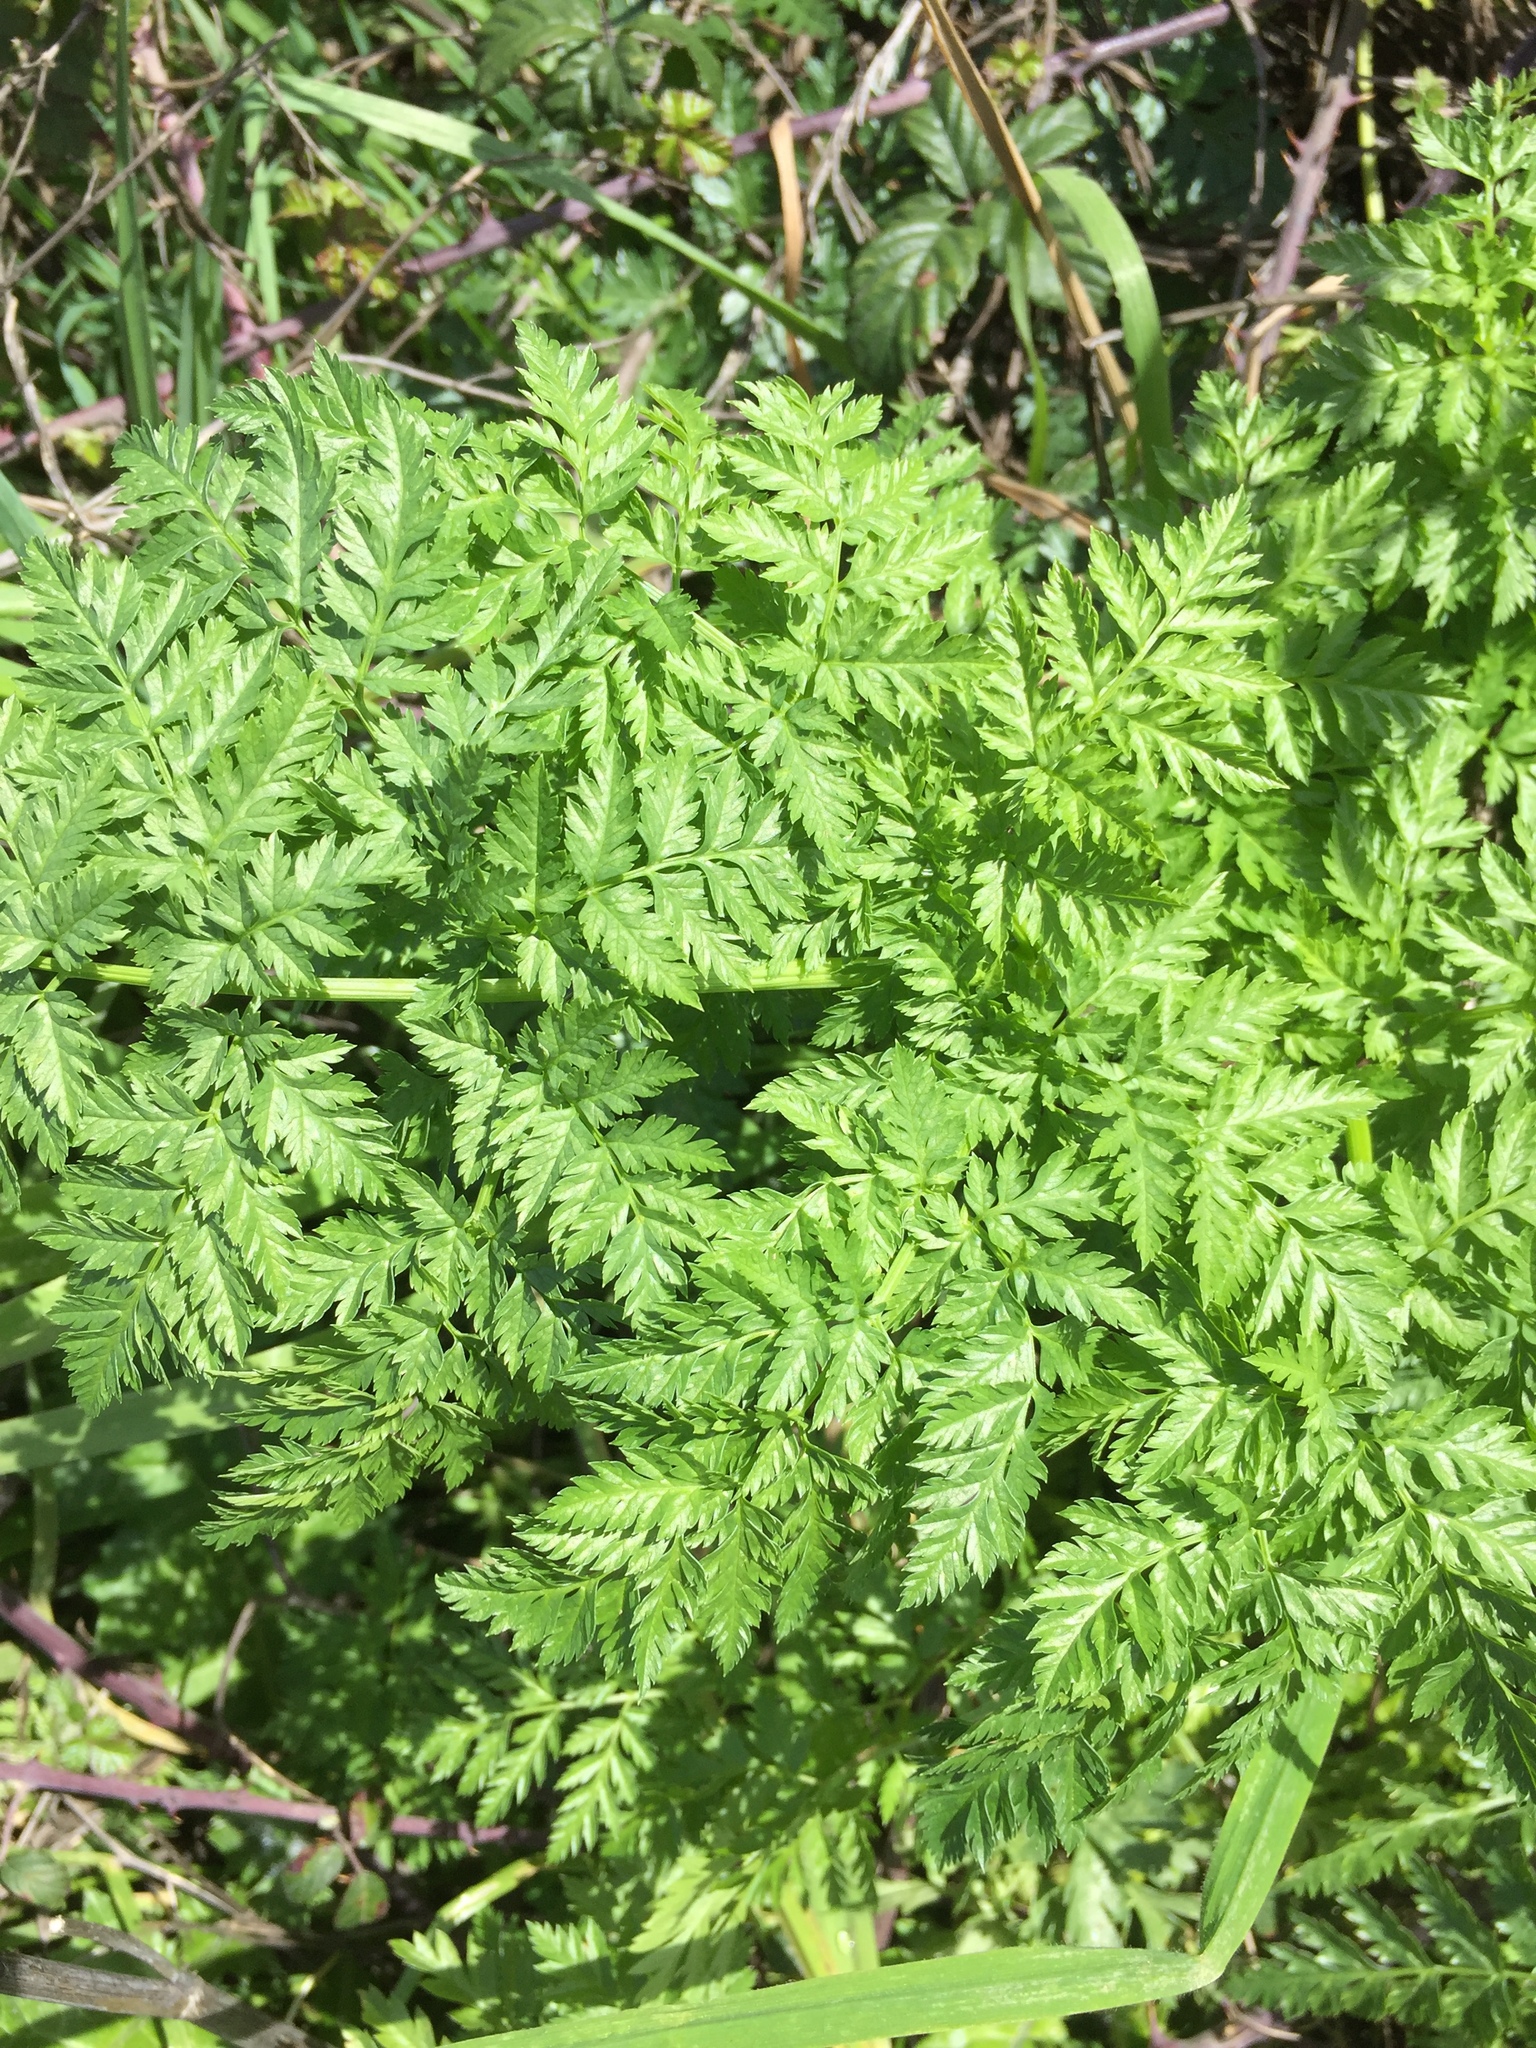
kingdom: Plantae
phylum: Tracheophyta
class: Magnoliopsida
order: Apiales
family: Apiaceae
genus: Conium
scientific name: Conium maculatum
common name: Hemlock
